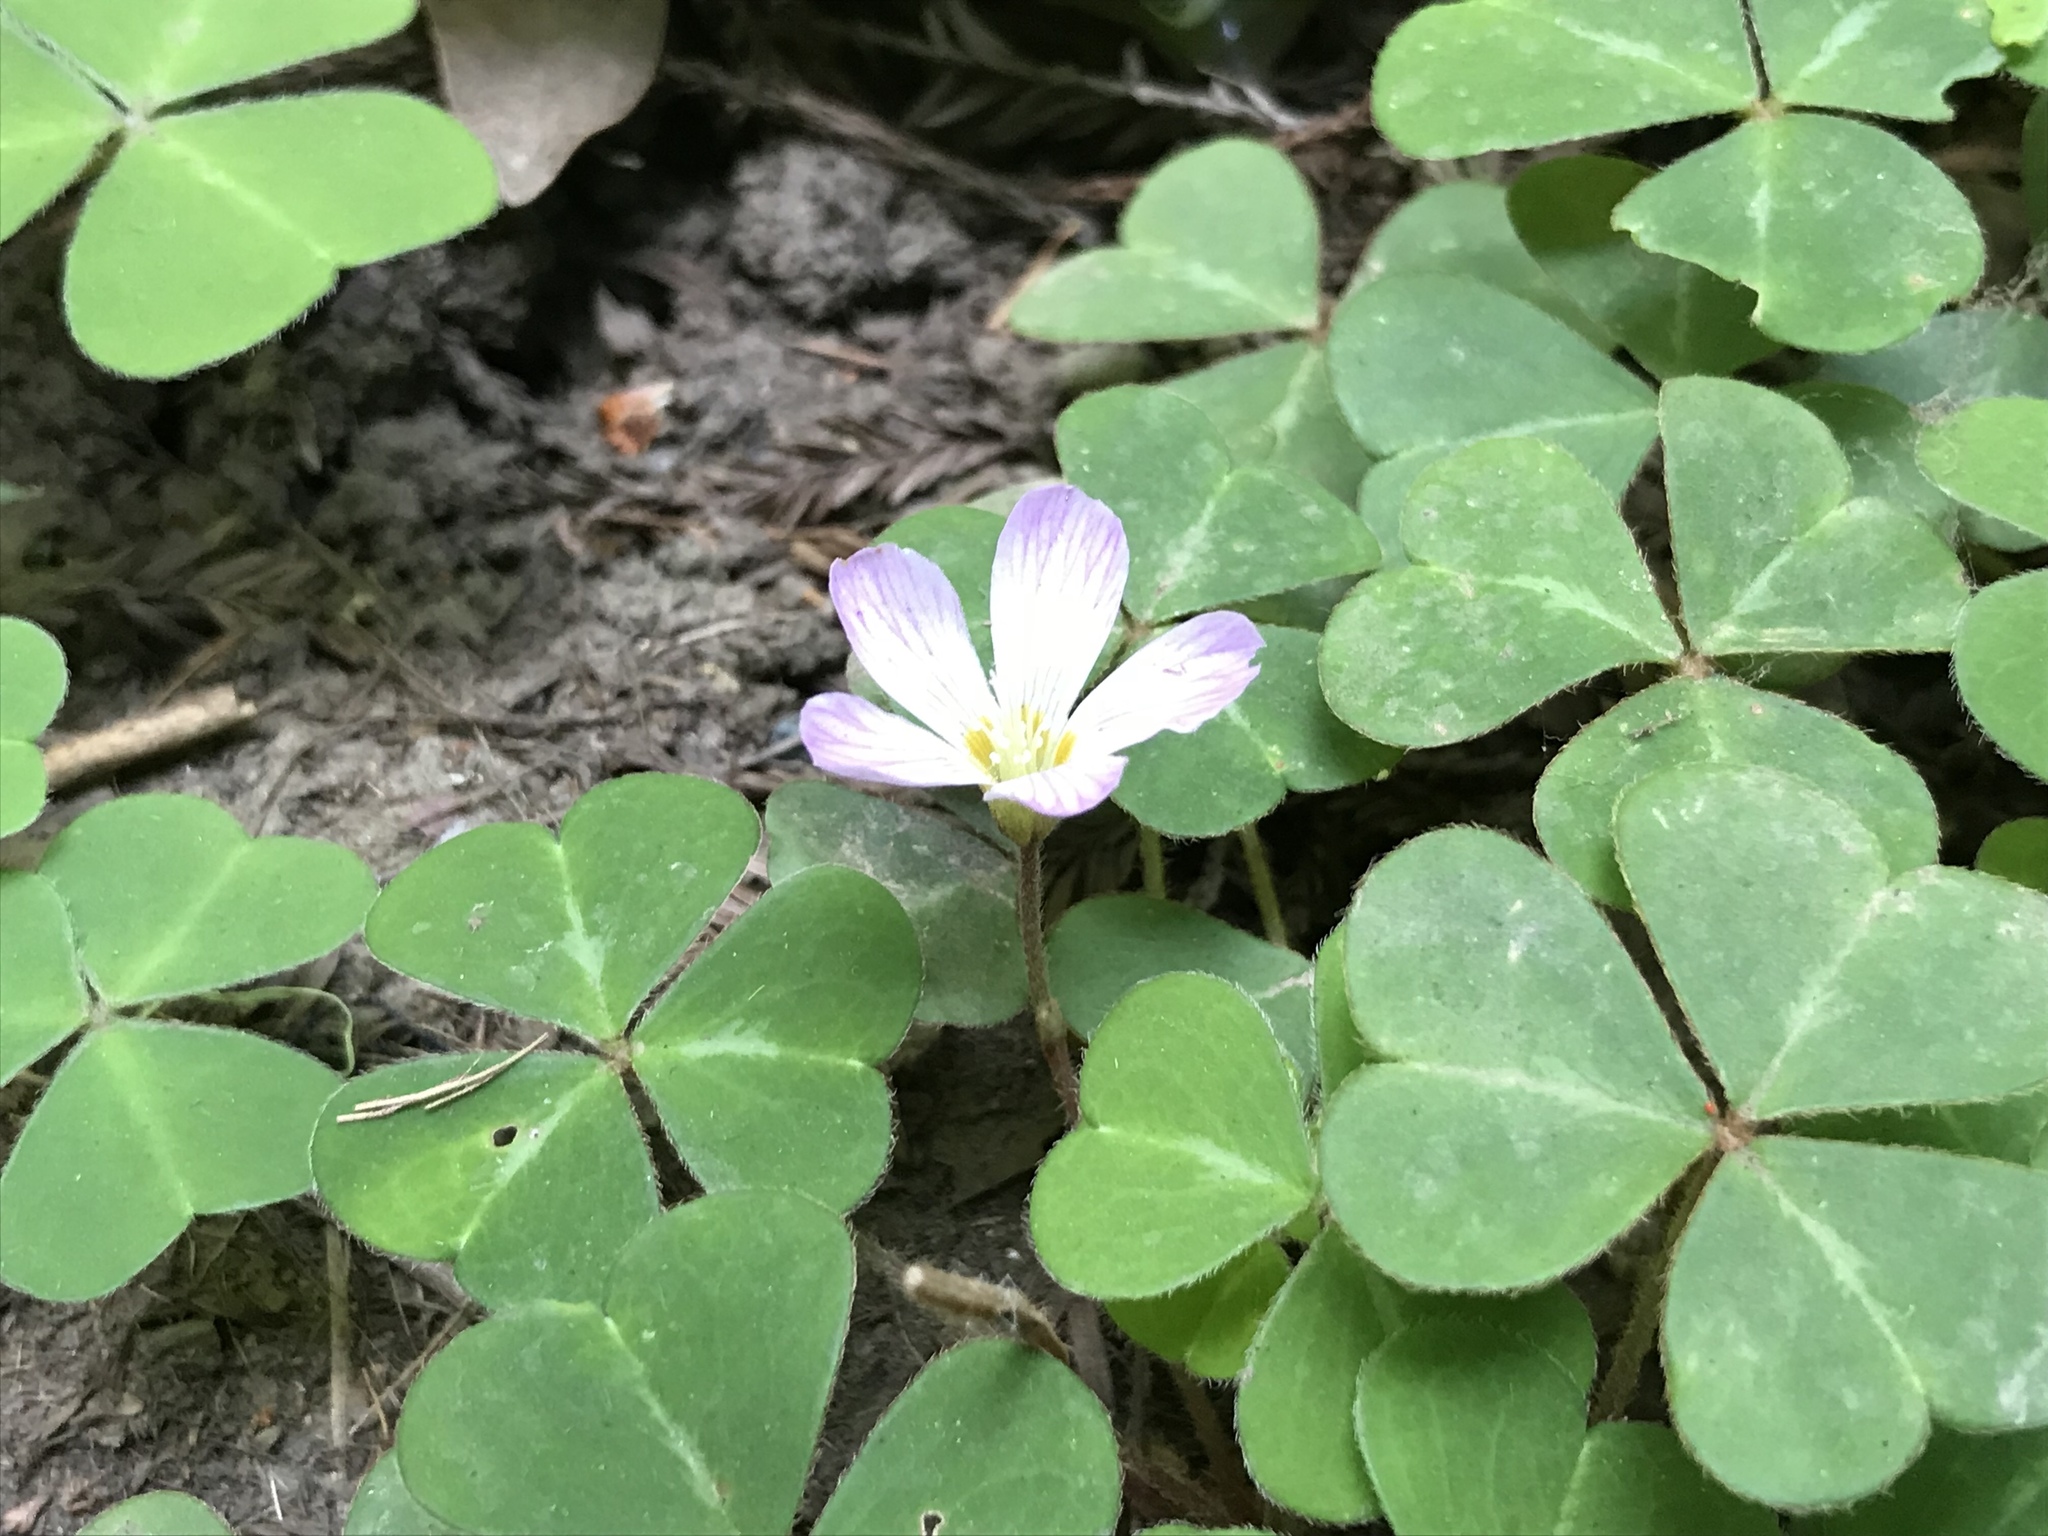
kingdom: Plantae
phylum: Tracheophyta
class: Magnoliopsida
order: Oxalidales
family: Oxalidaceae
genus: Oxalis
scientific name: Oxalis oregana
